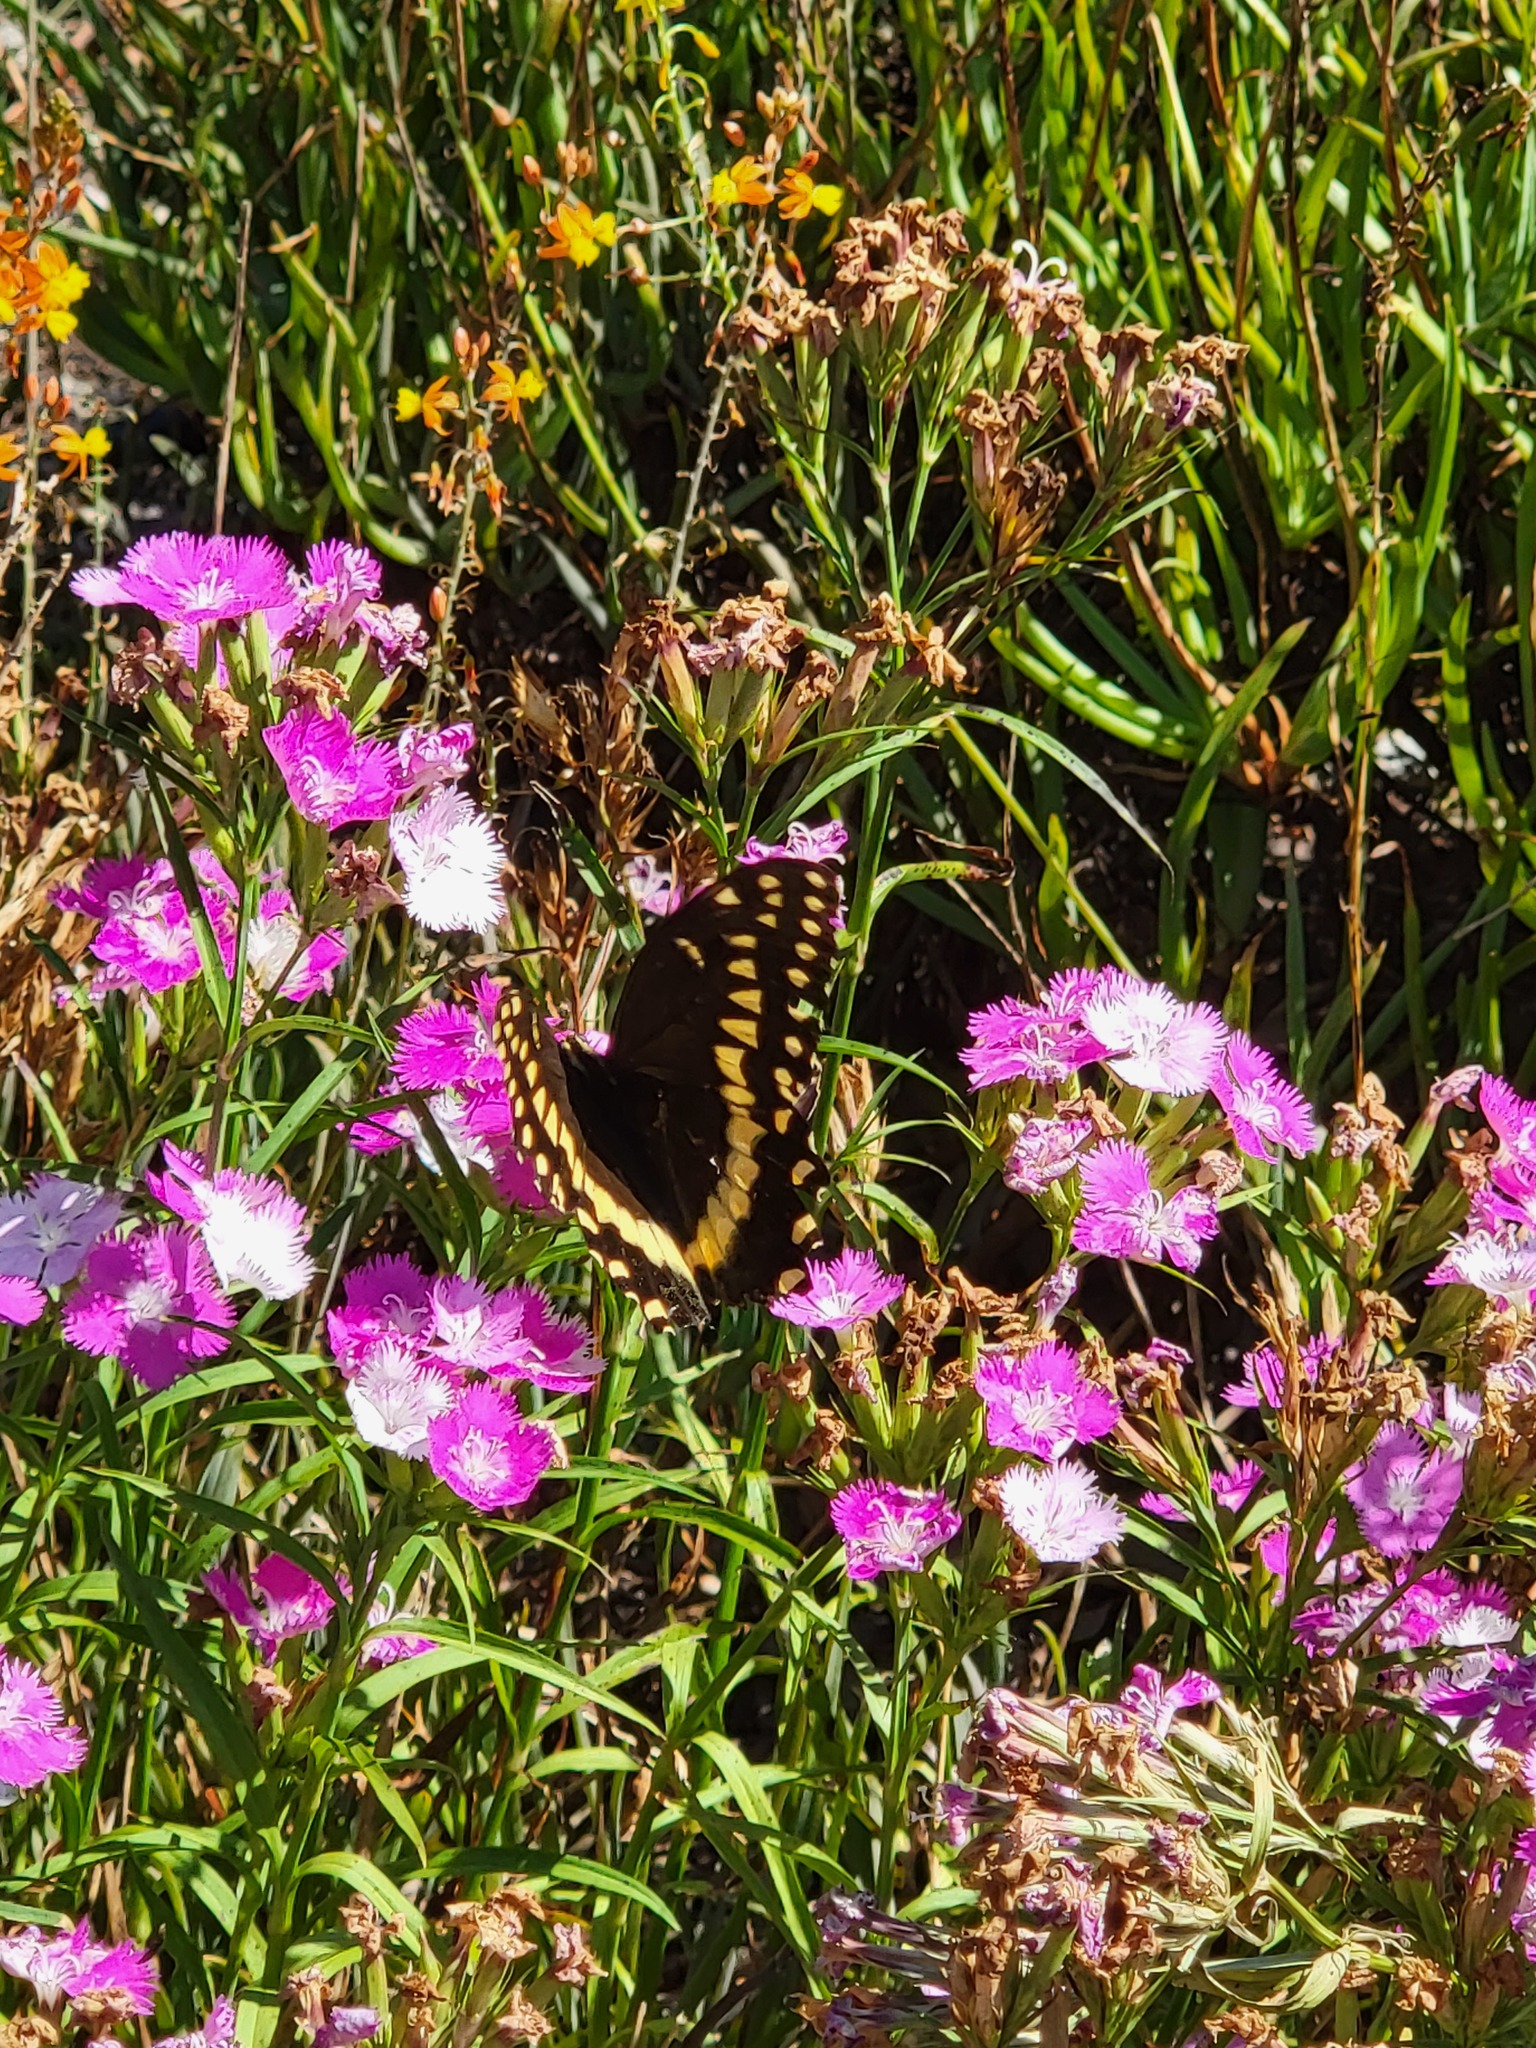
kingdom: Animalia
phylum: Arthropoda
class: Insecta
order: Lepidoptera
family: Papilionidae
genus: Papilio
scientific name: Papilio palamedes
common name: Palamedes swallowtail
